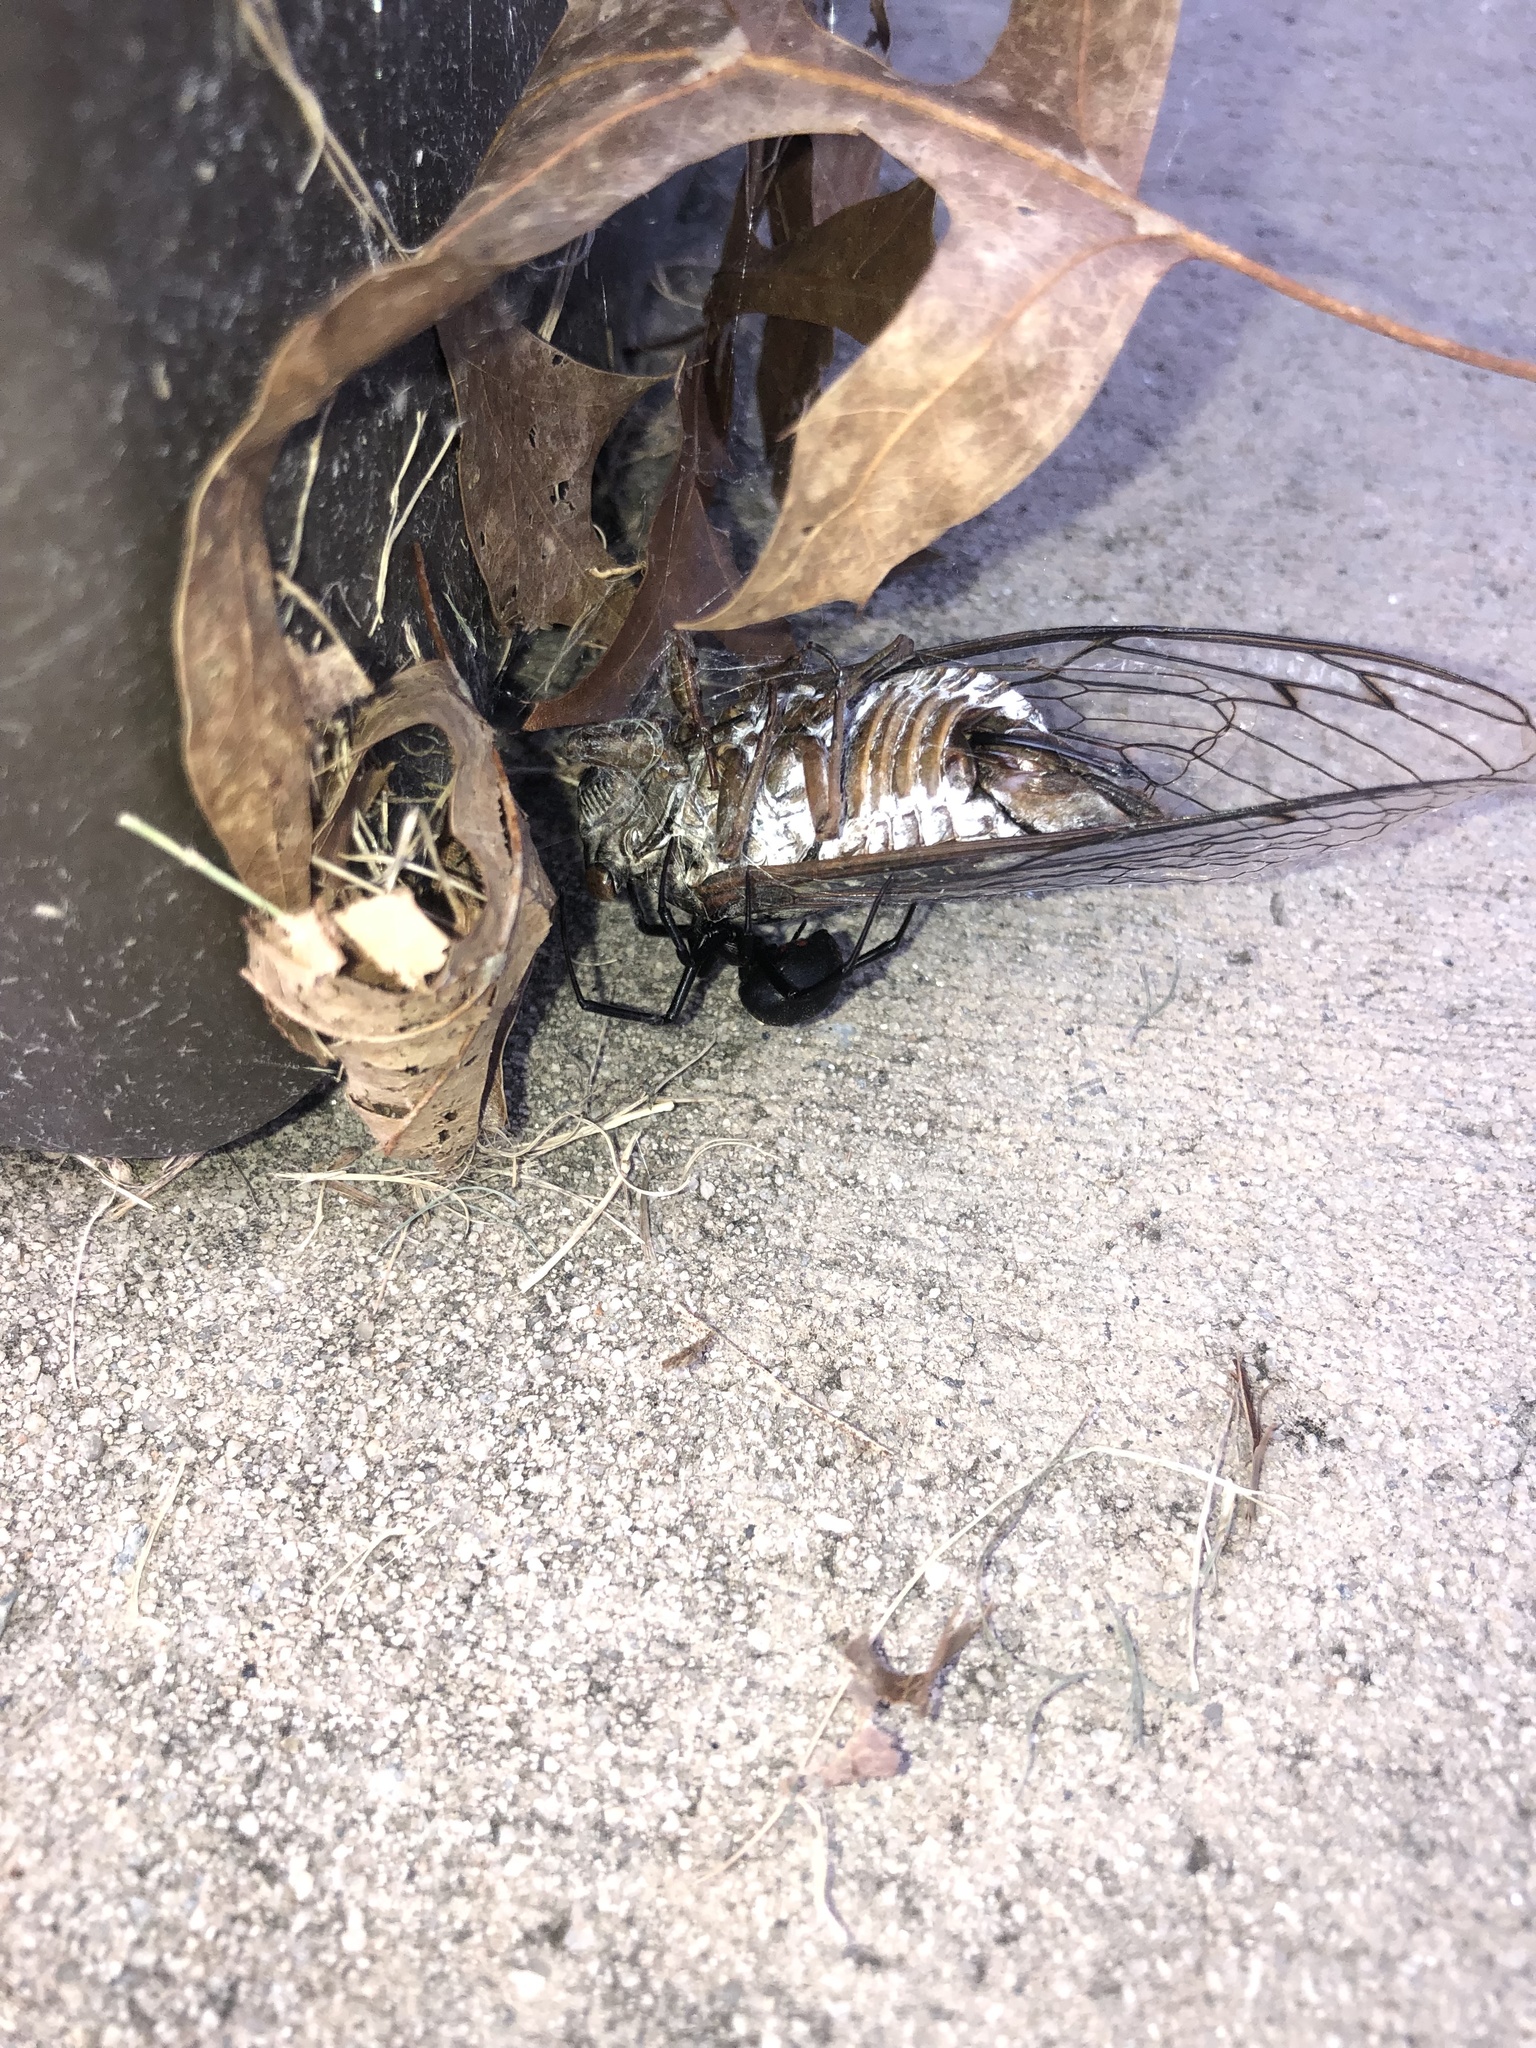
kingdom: Animalia
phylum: Arthropoda
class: Arachnida
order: Araneae
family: Theridiidae
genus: Latrodectus
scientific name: Latrodectus mactans
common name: Cobweb spiders
